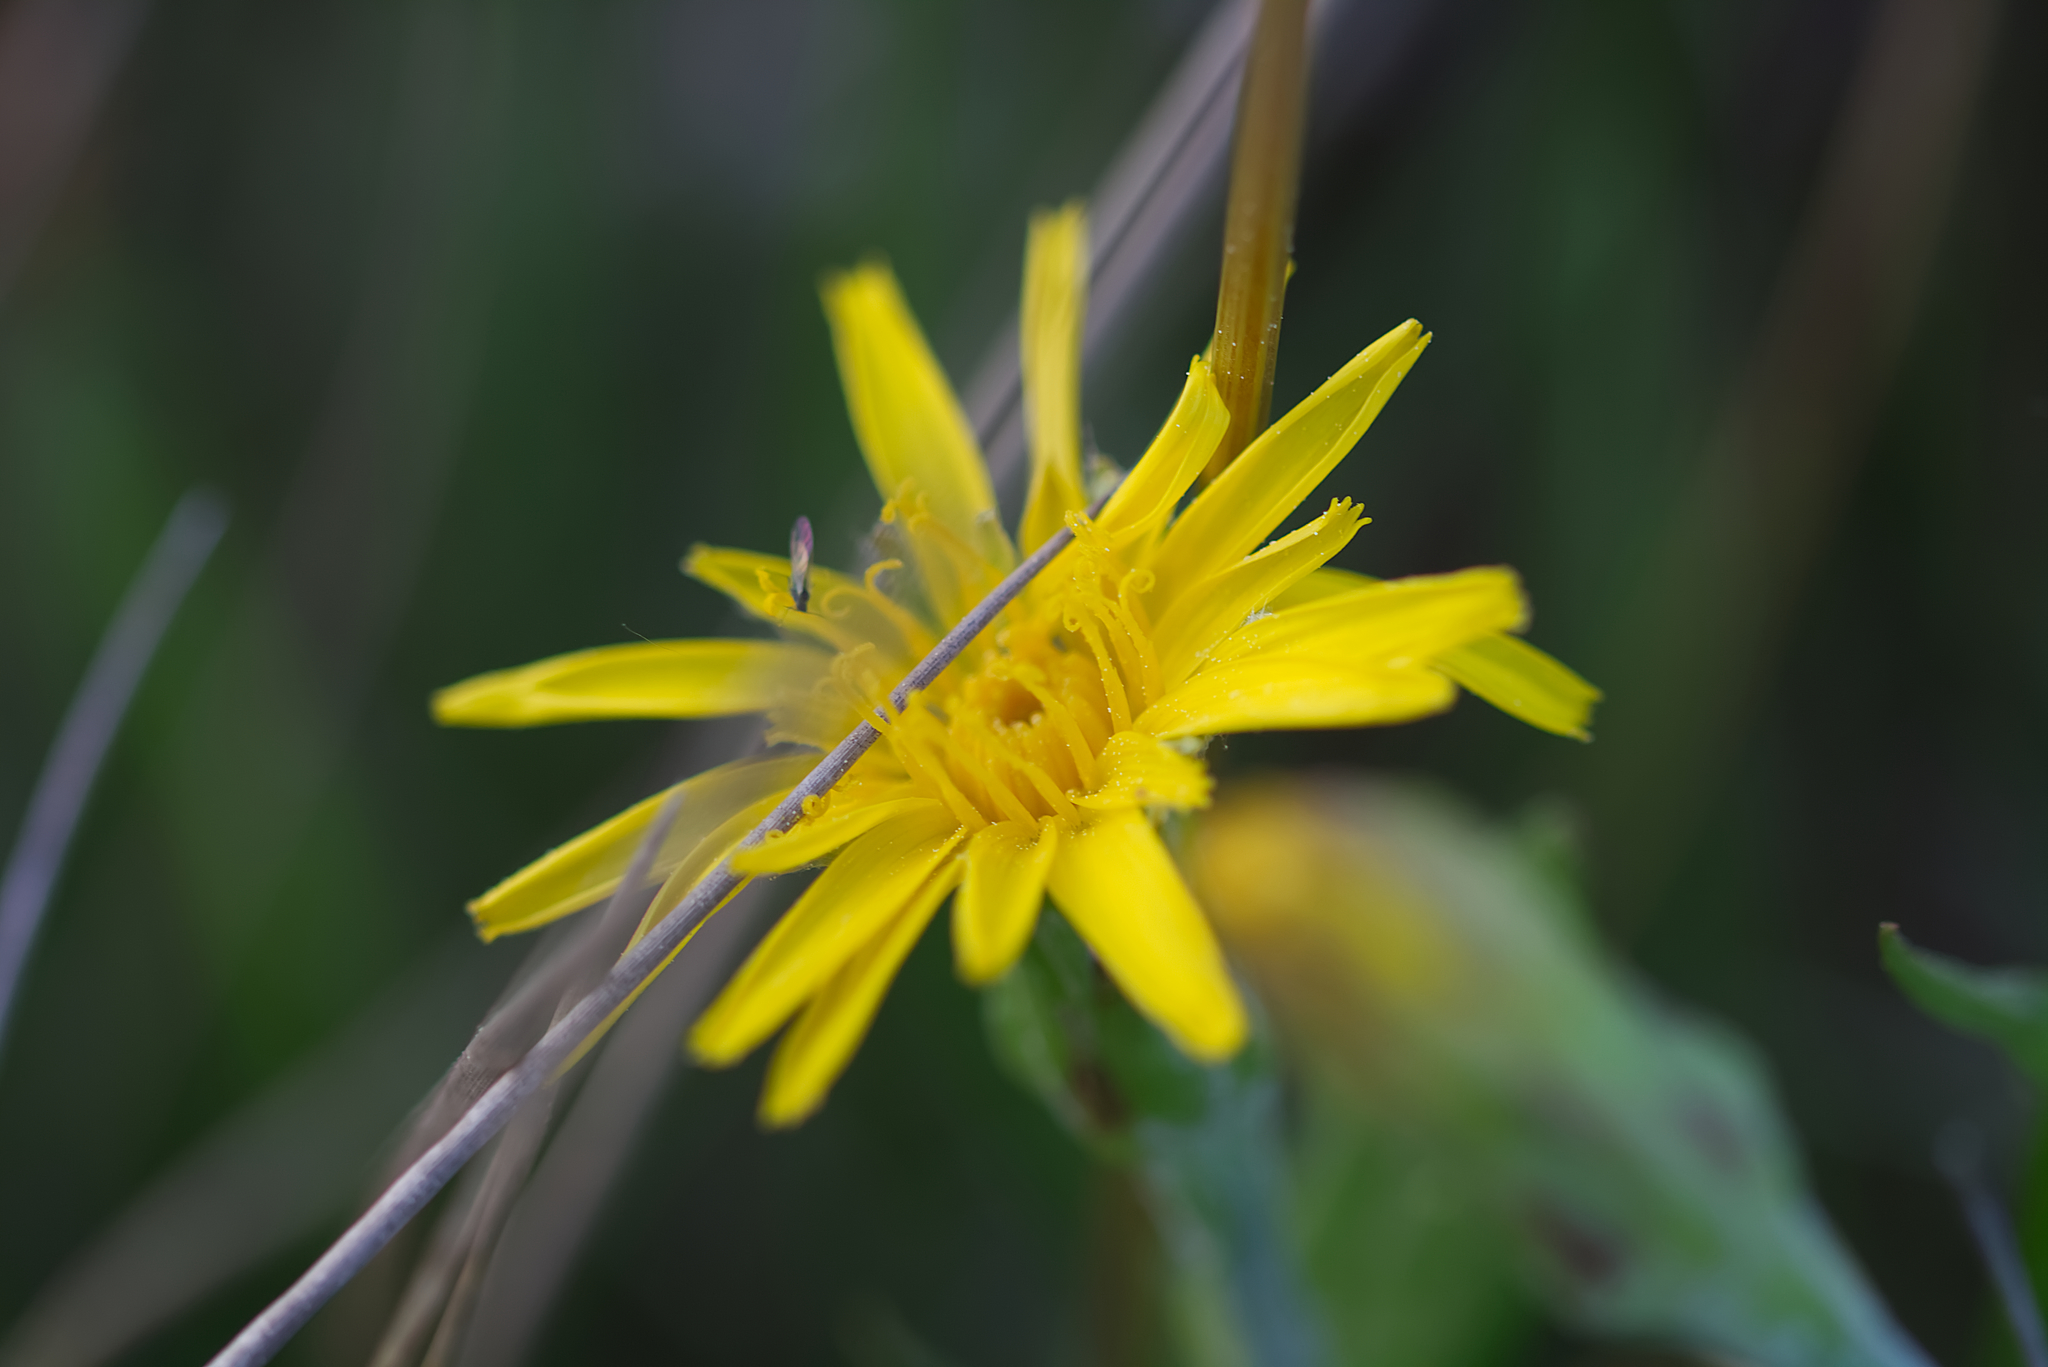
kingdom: Plantae
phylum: Tracheophyta
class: Magnoliopsida
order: Asterales
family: Asteraceae
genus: Scorzonera
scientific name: Scorzonera humilis
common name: Viper's-grass
